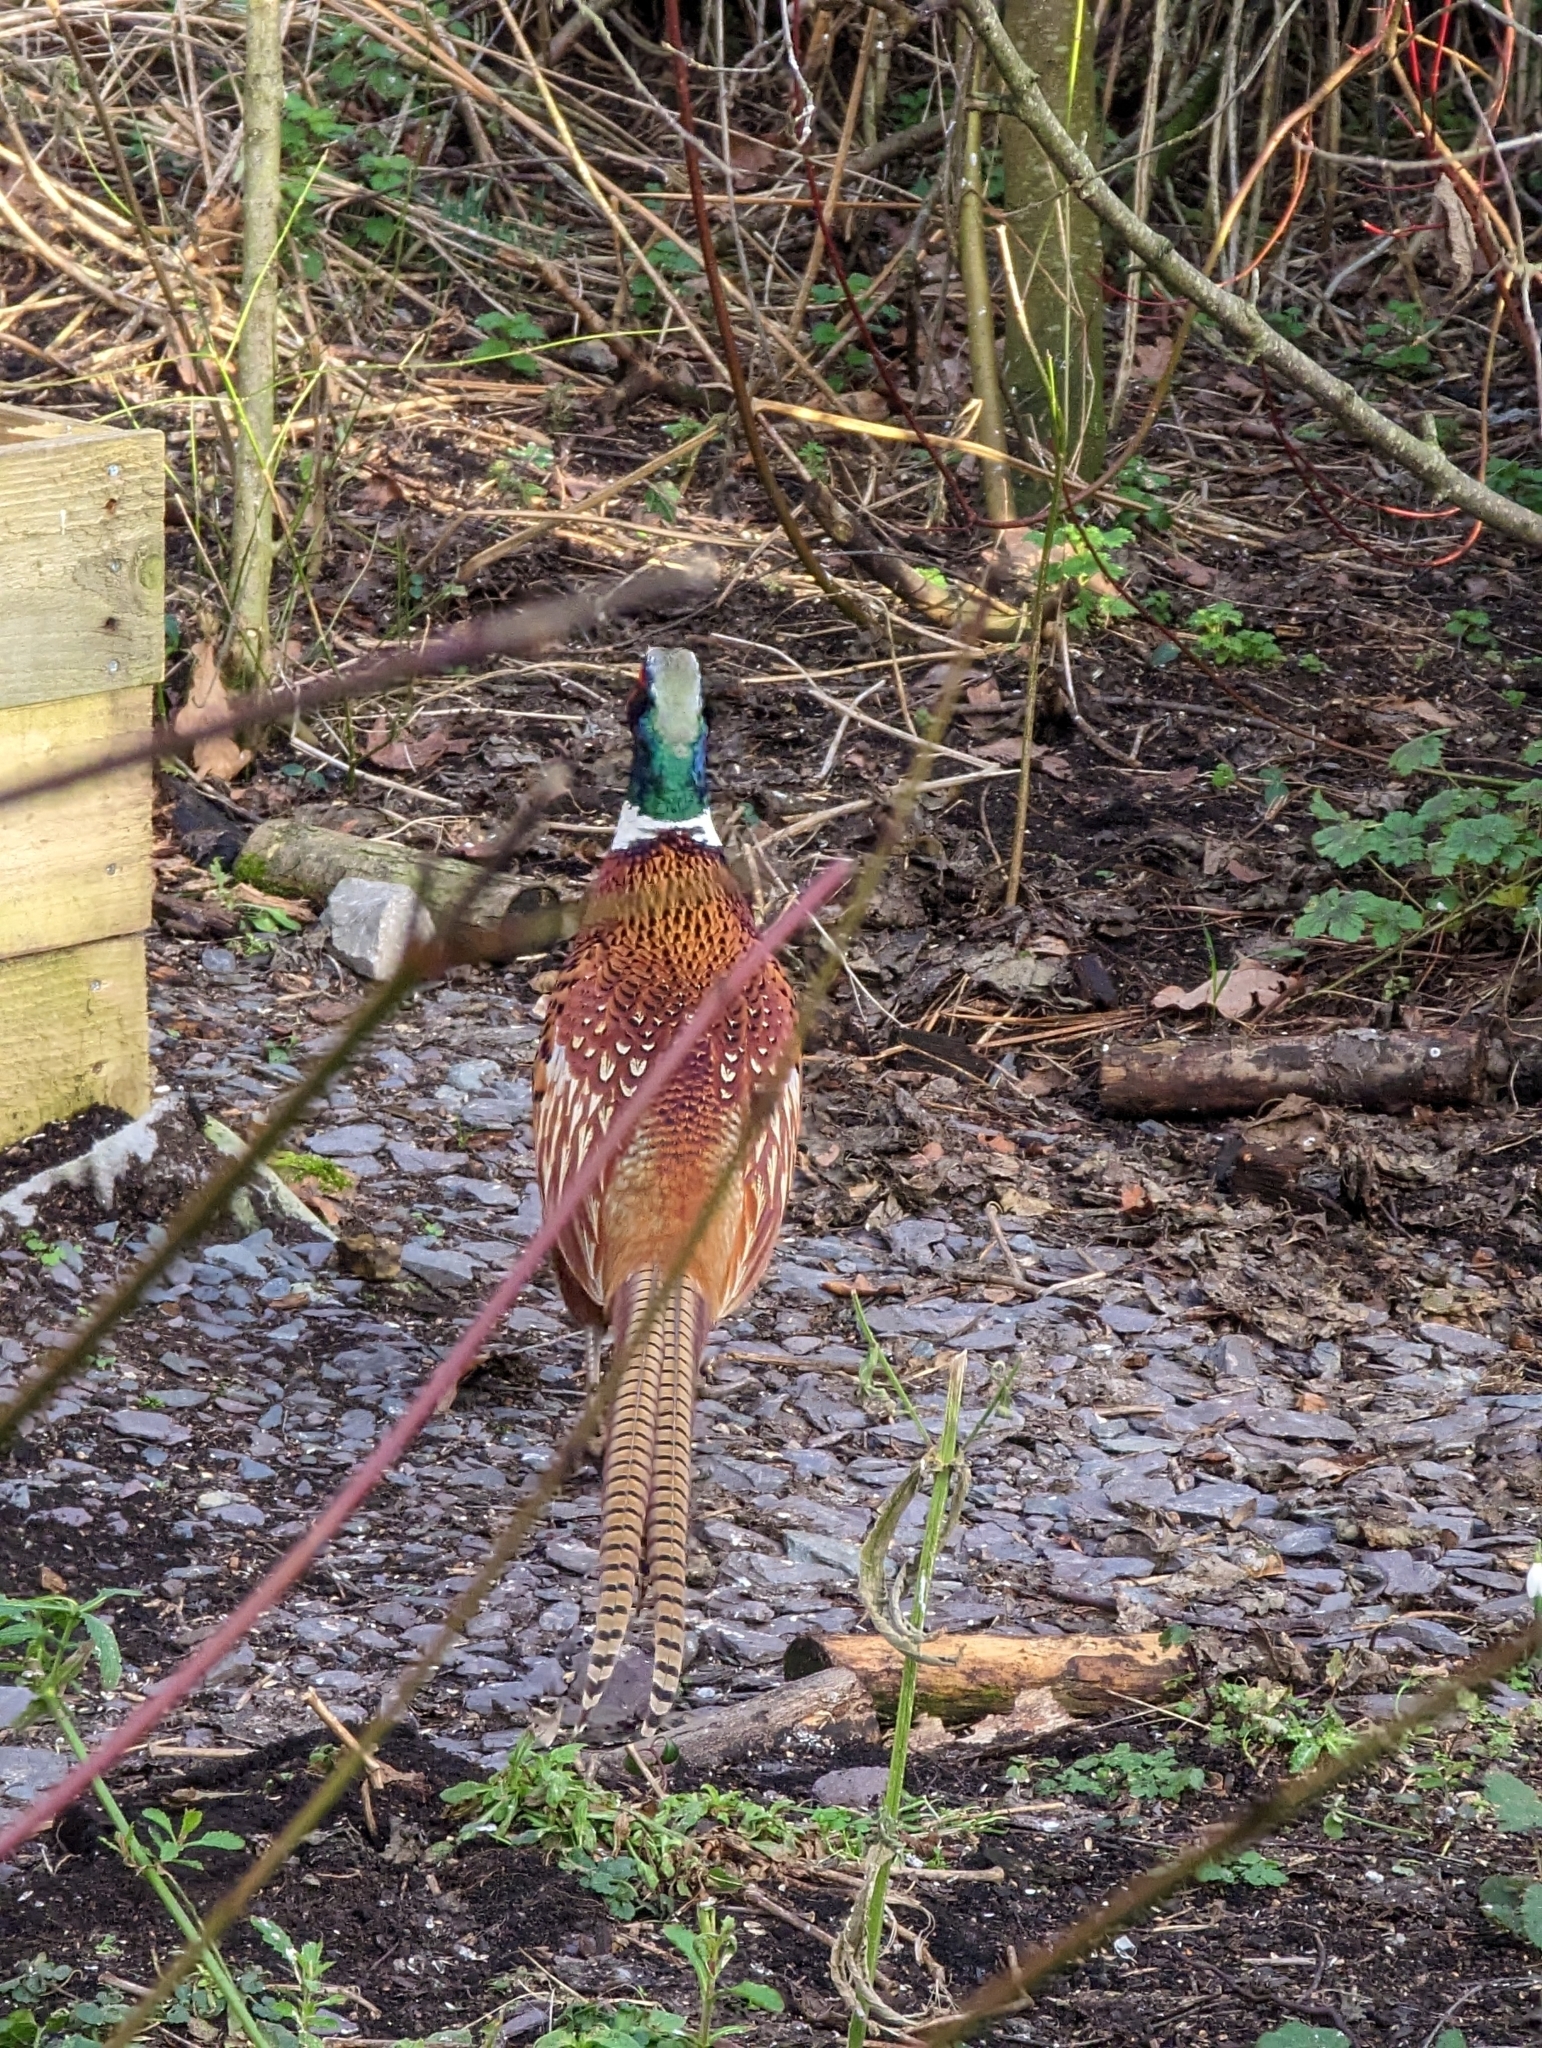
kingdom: Animalia
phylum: Chordata
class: Aves
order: Galliformes
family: Phasianidae
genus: Phasianus
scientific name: Phasianus colchicus
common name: Common pheasant
